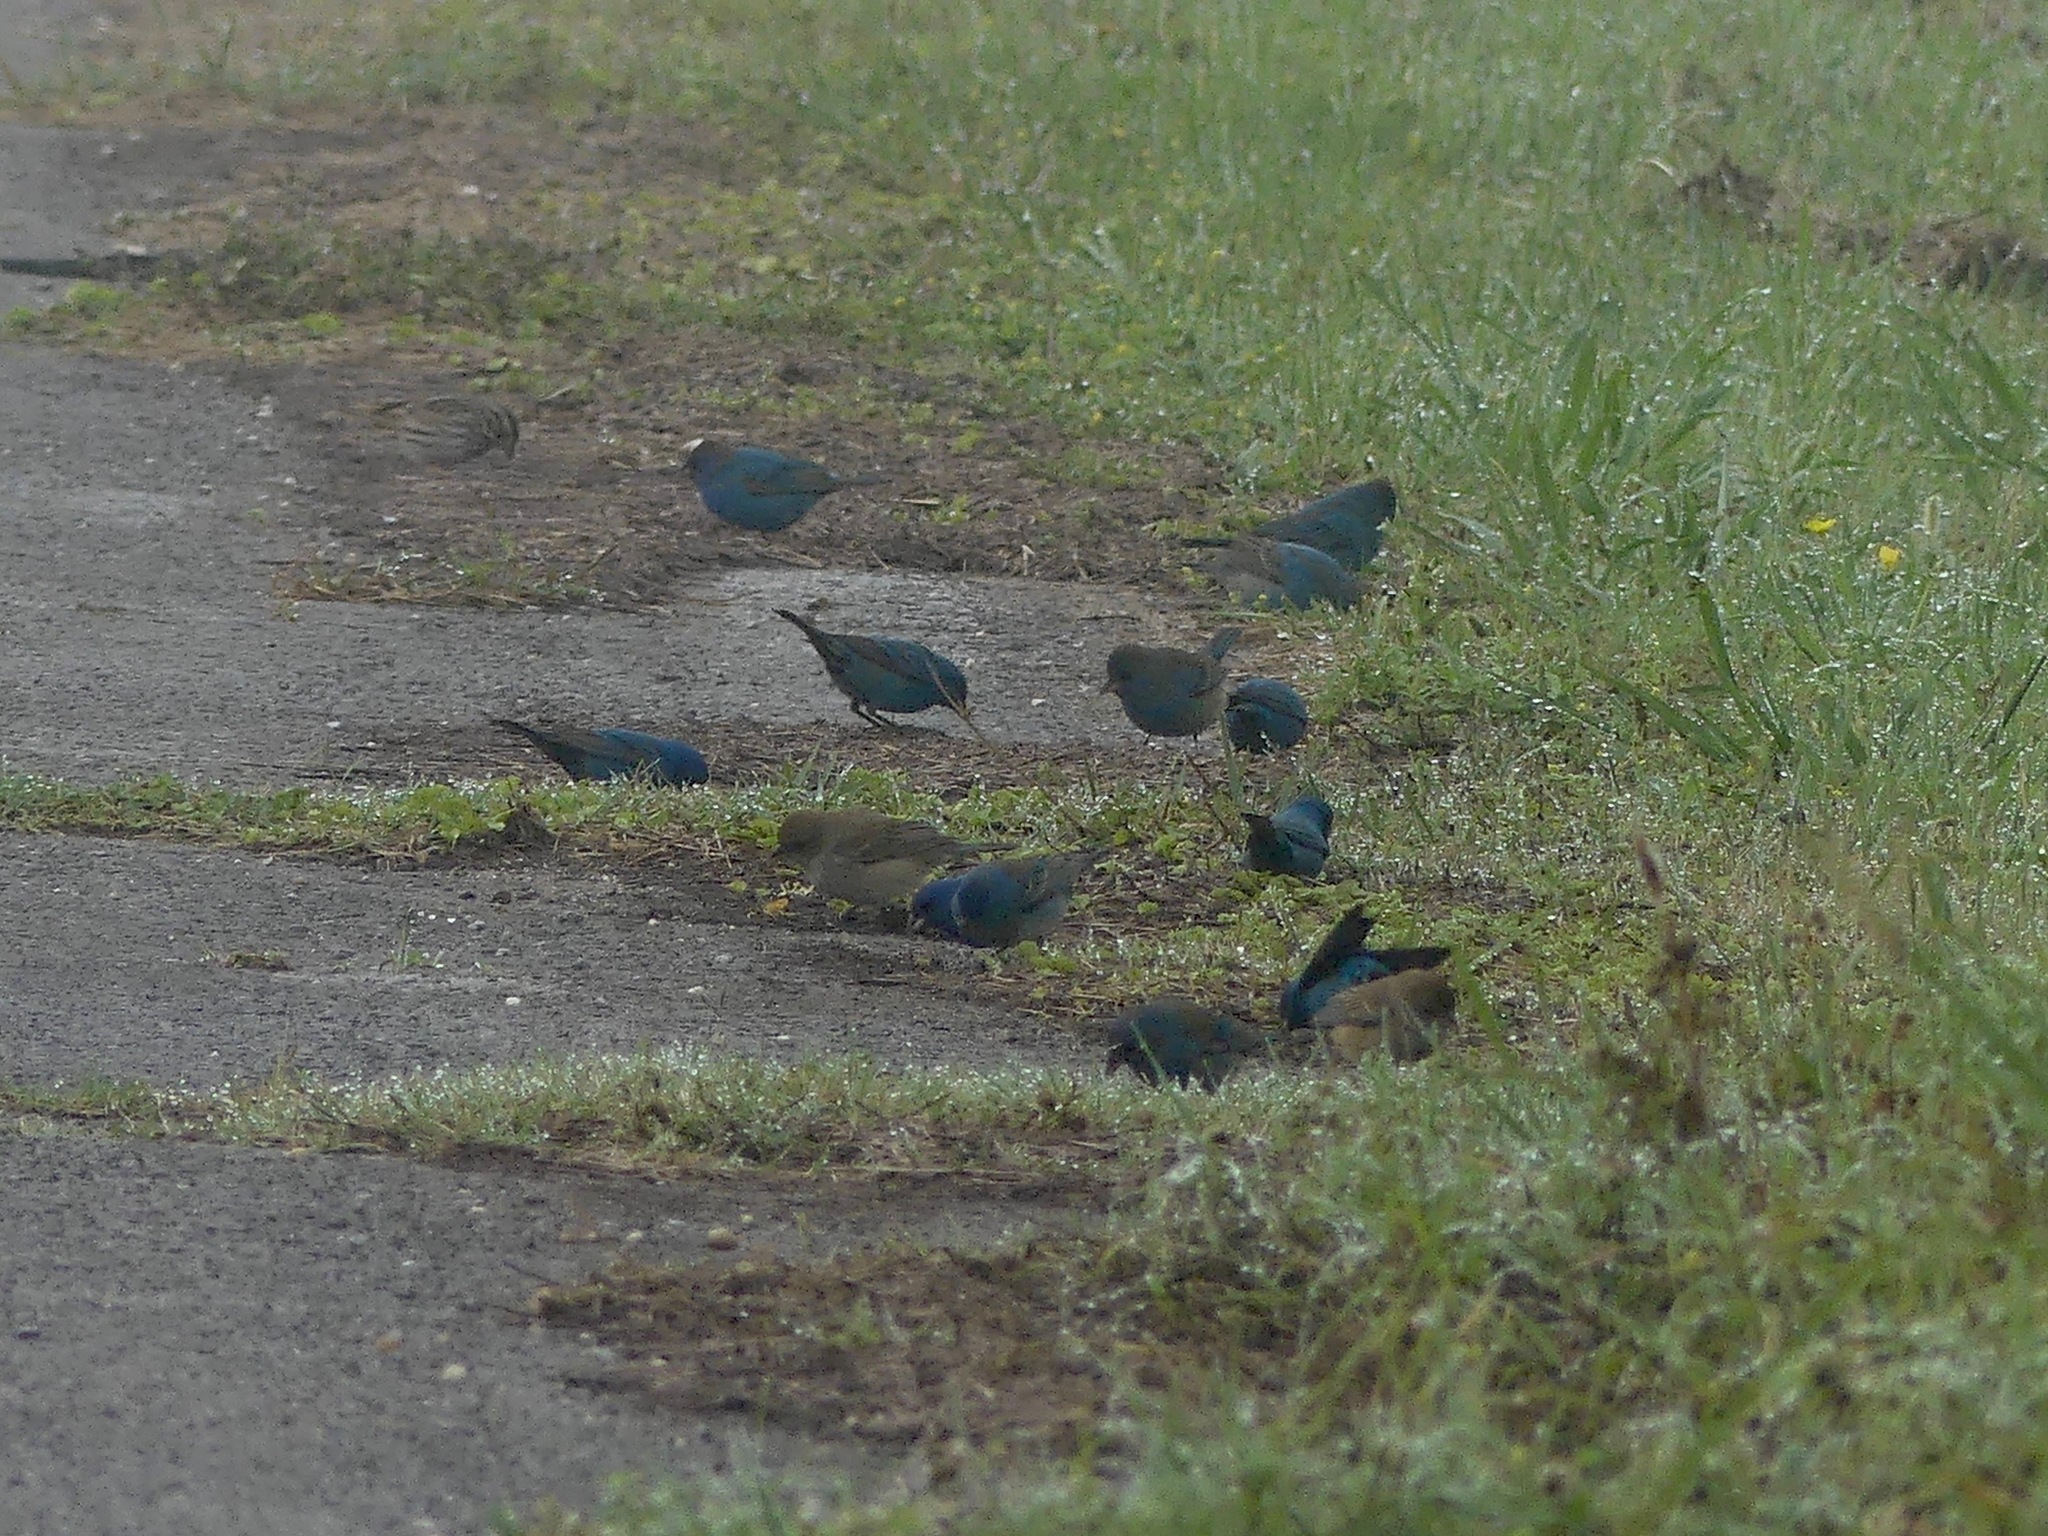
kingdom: Animalia
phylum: Chordata
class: Aves
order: Passeriformes
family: Cardinalidae
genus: Passerina
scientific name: Passerina cyanea
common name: Indigo bunting
